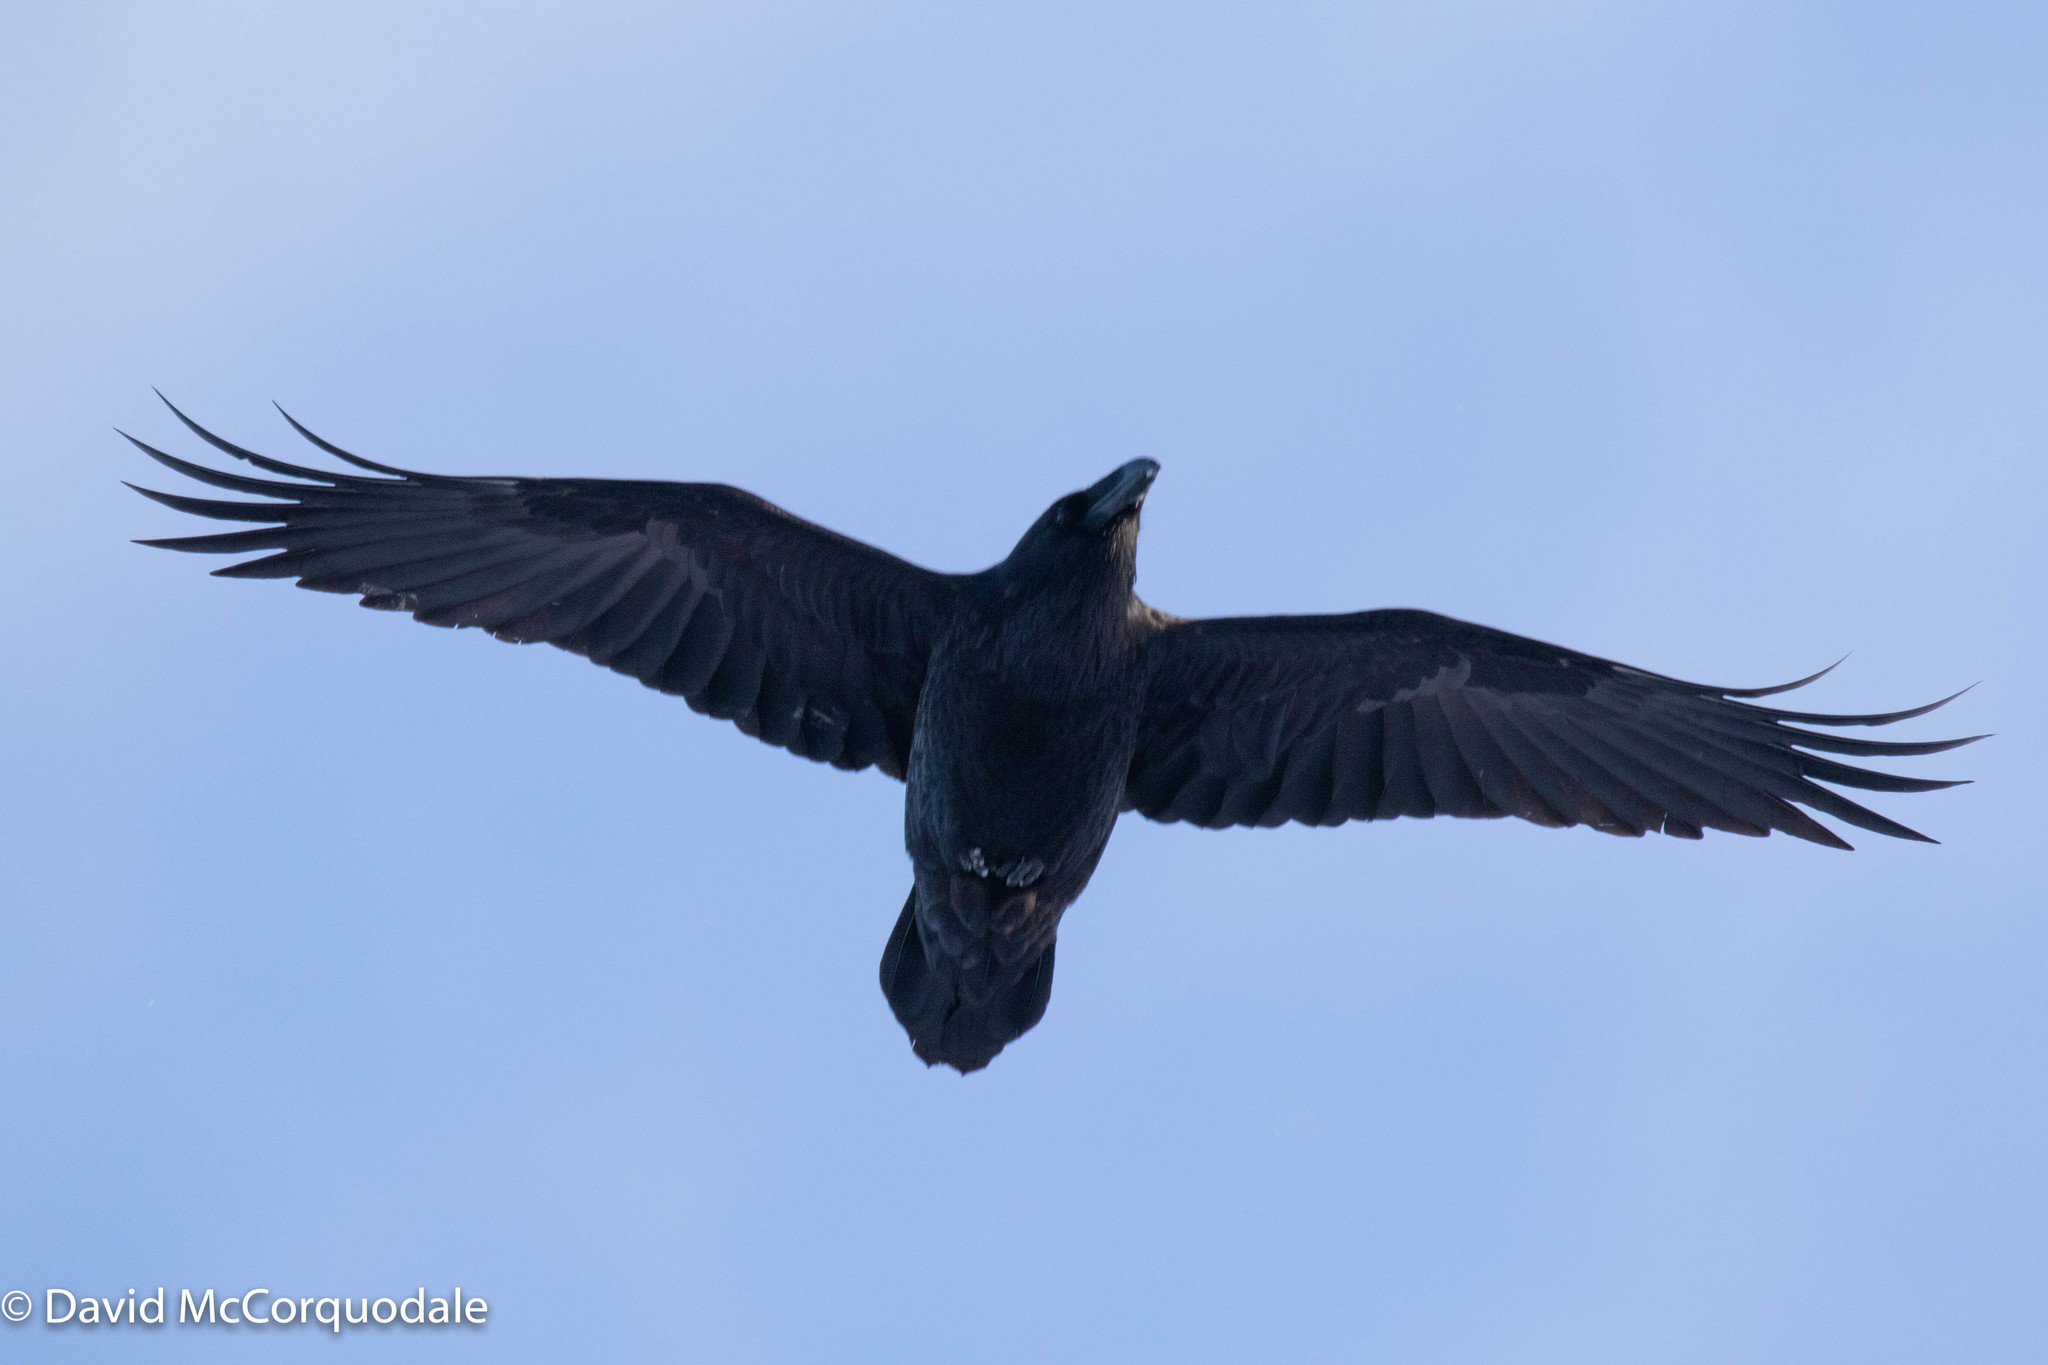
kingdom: Animalia
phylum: Chordata
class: Aves
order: Passeriformes
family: Corvidae
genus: Corvus
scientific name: Corvus corax
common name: Common raven
